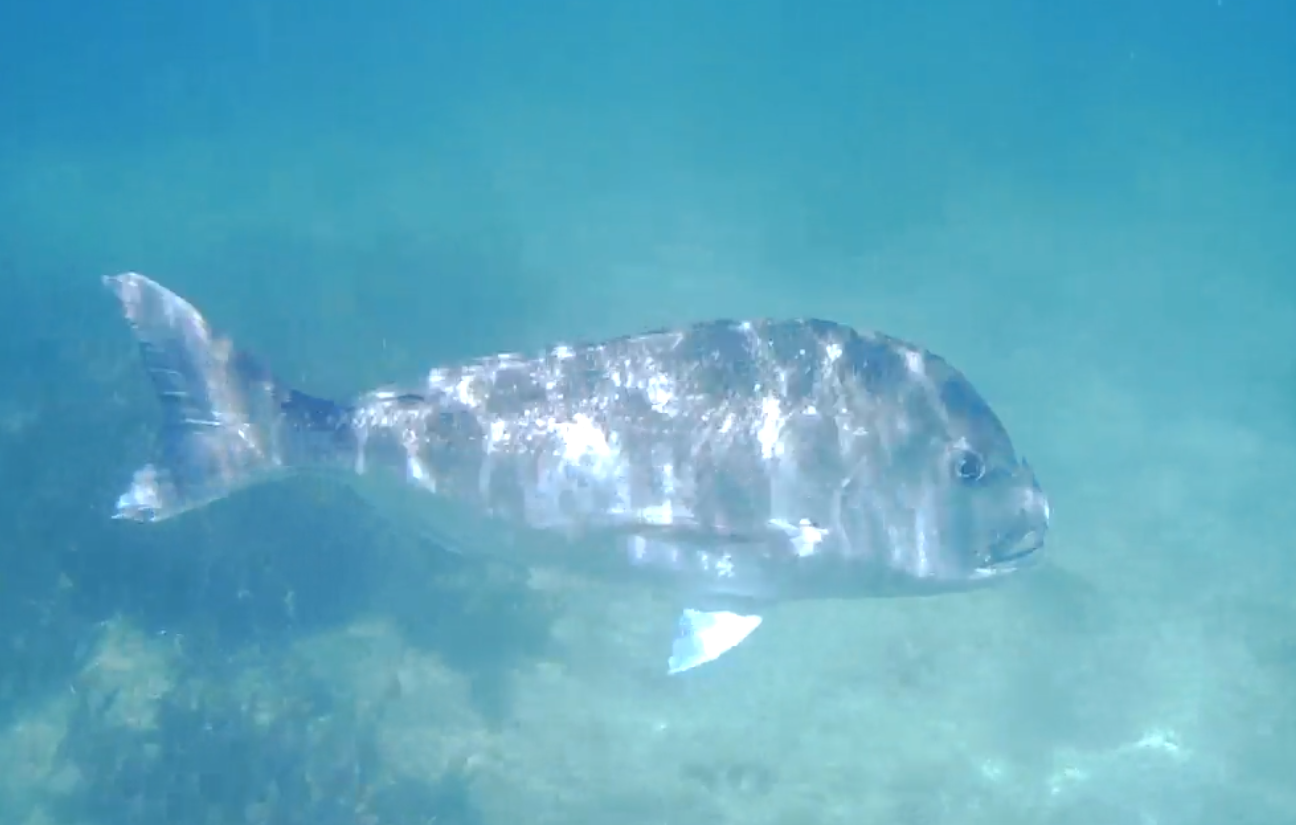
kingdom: Animalia
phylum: Chordata
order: Perciformes
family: Sparidae
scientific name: Sparidae
